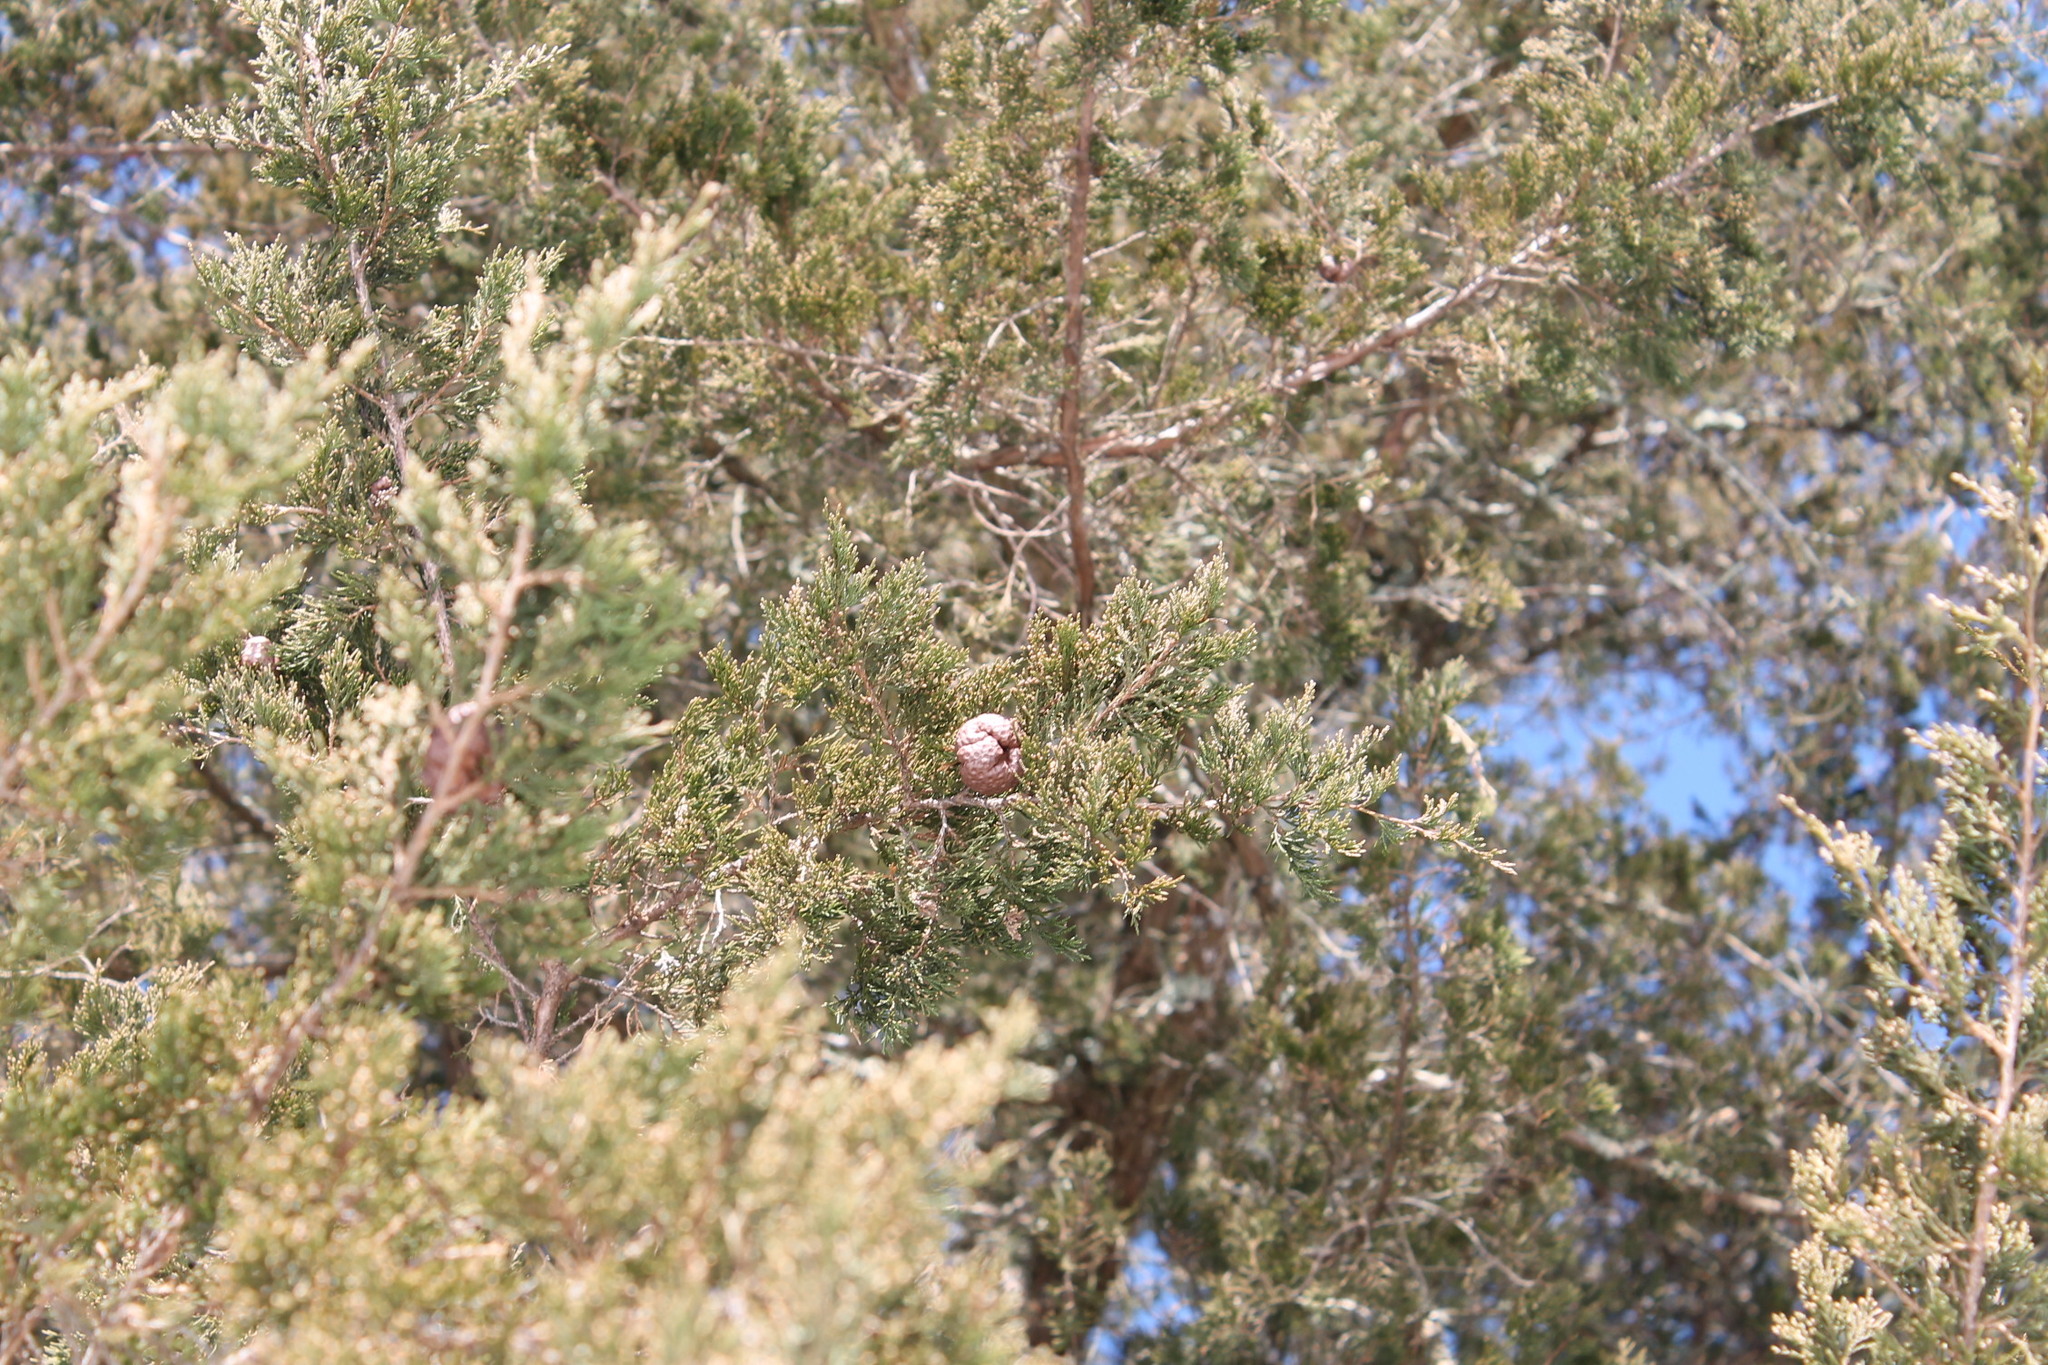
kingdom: Fungi
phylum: Basidiomycota
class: Pucciniomycetes
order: Pucciniales
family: Gymnosporangiaceae
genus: Gymnosporangium
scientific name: Gymnosporangium juniperi-virginianae
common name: Juniper-apple rust
